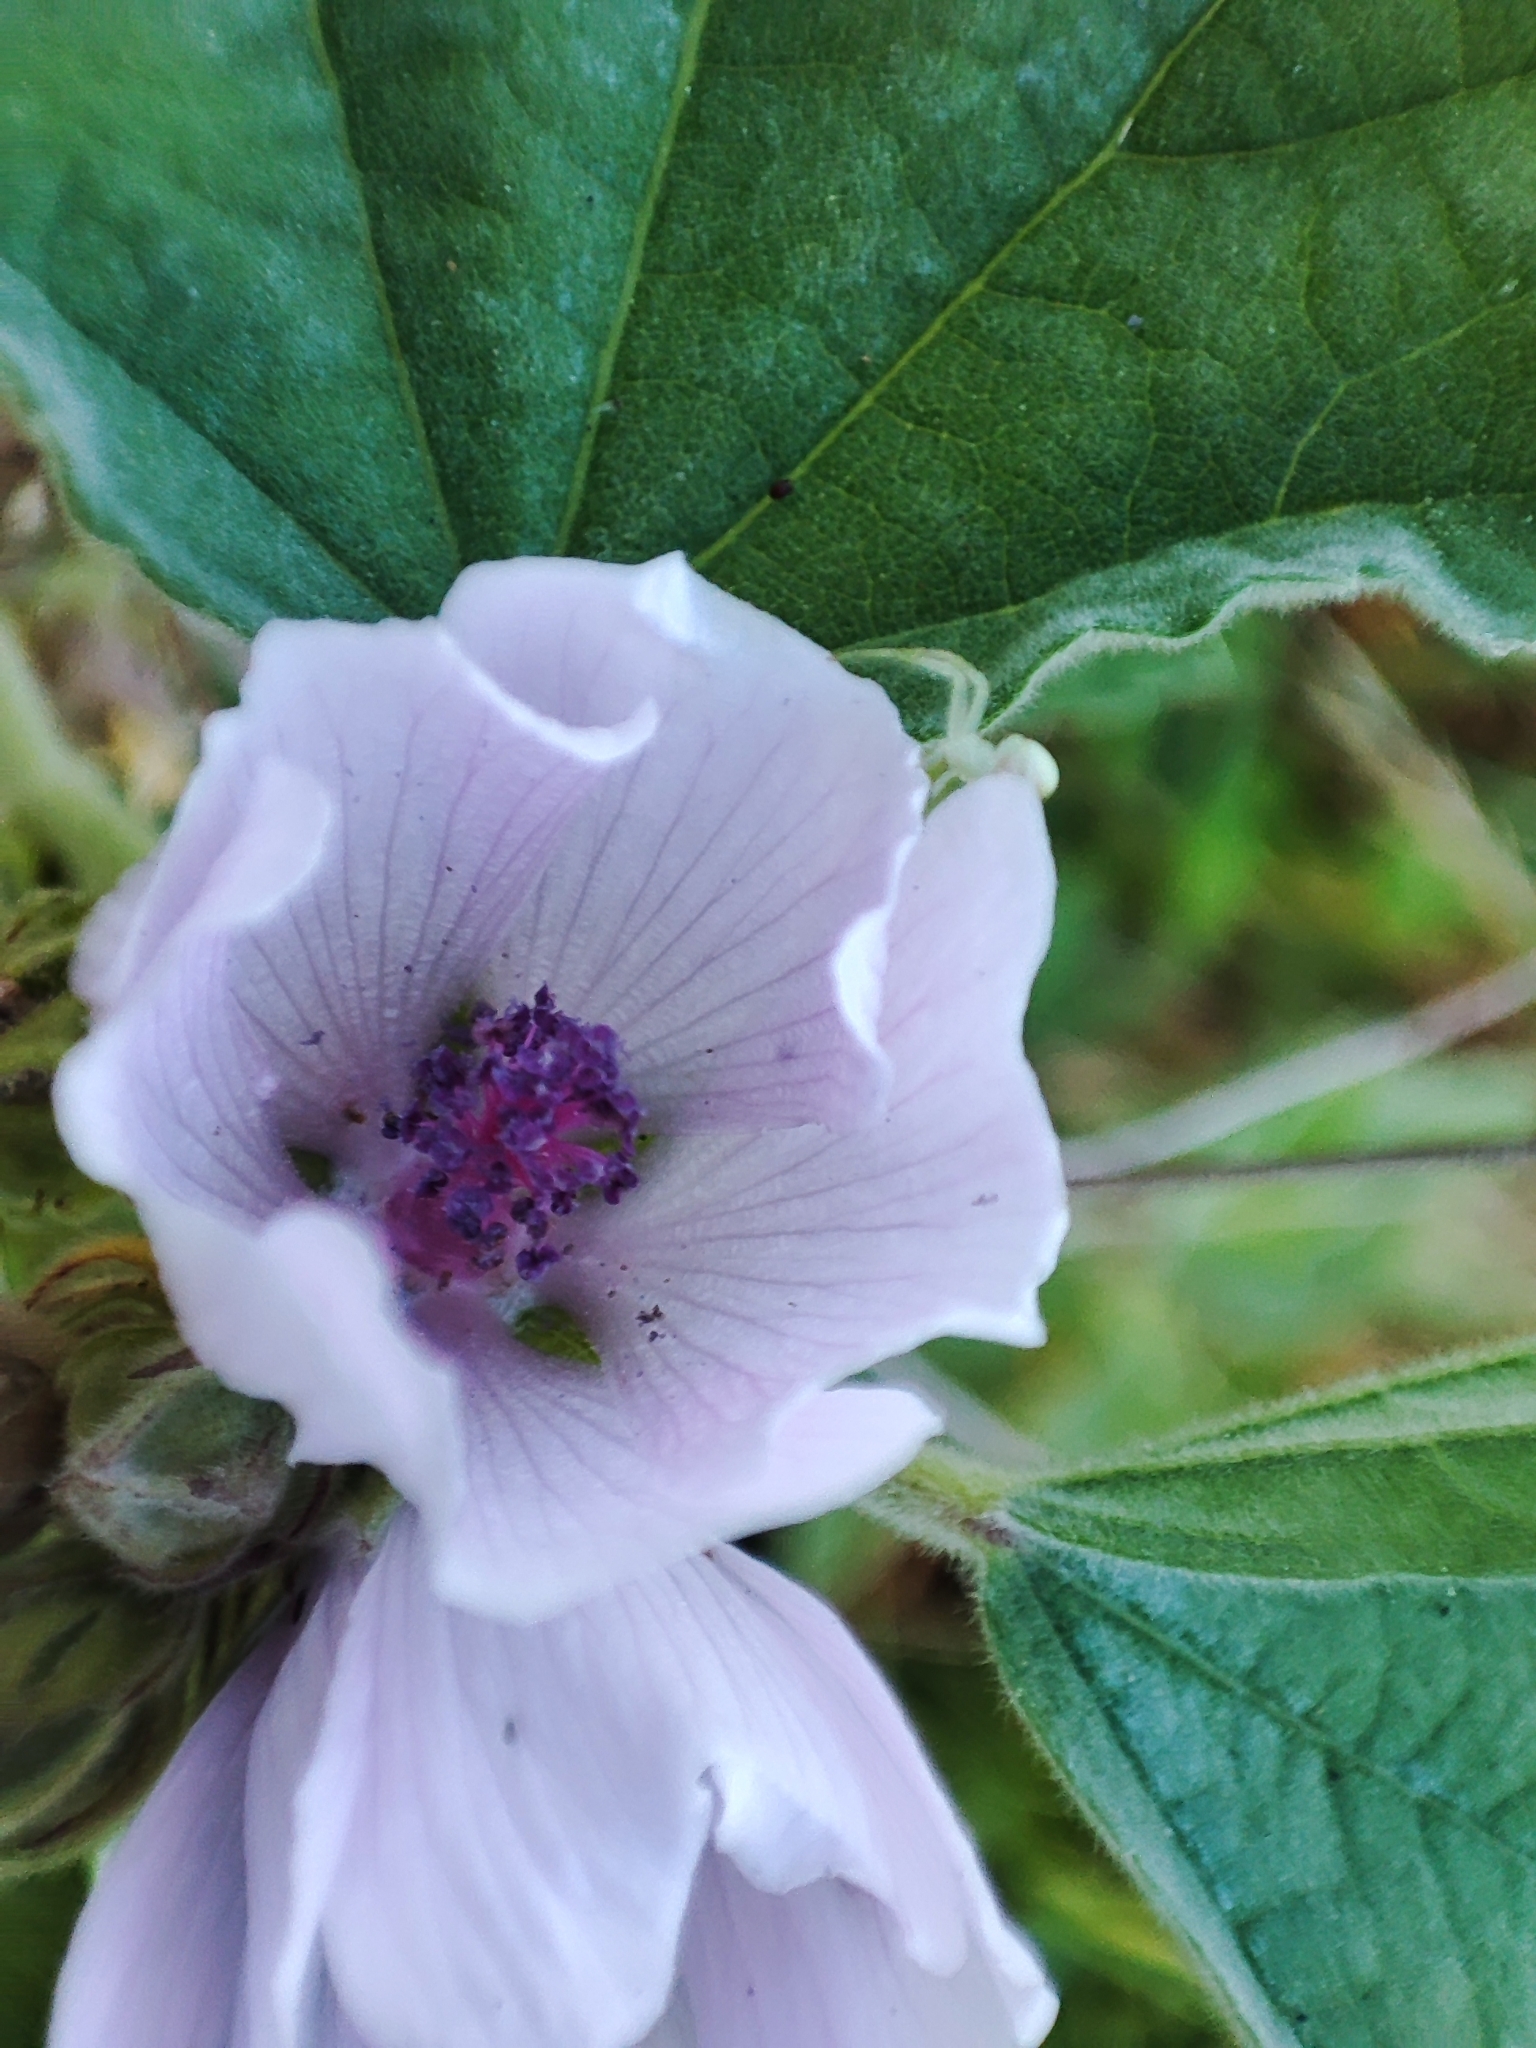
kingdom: Plantae
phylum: Tracheophyta
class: Magnoliopsida
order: Malvales
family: Malvaceae
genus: Althaea
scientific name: Althaea officinalis
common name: Marsh-mallow
